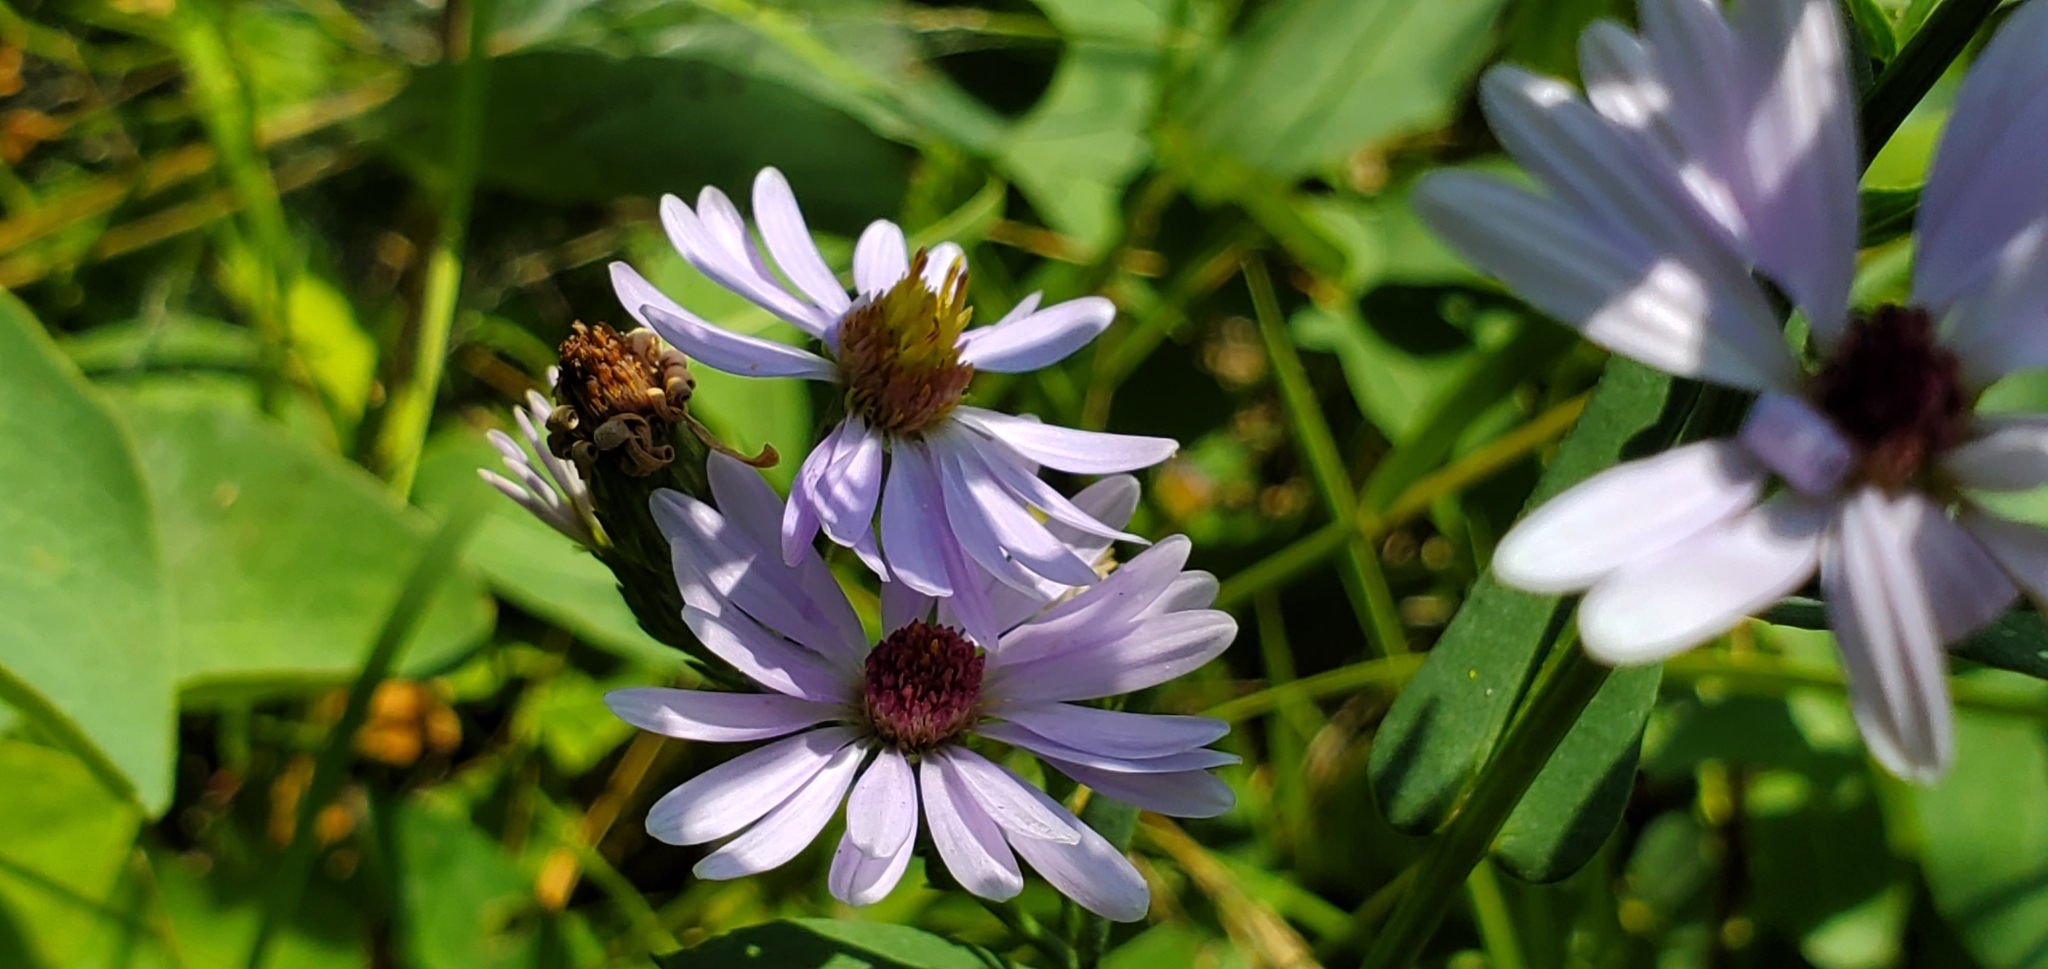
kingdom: Plantae
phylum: Tracheophyta
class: Magnoliopsida
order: Asterales
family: Asteraceae
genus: Symphyotrichum
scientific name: Symphyotrichum laeve
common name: Glaucous aster
